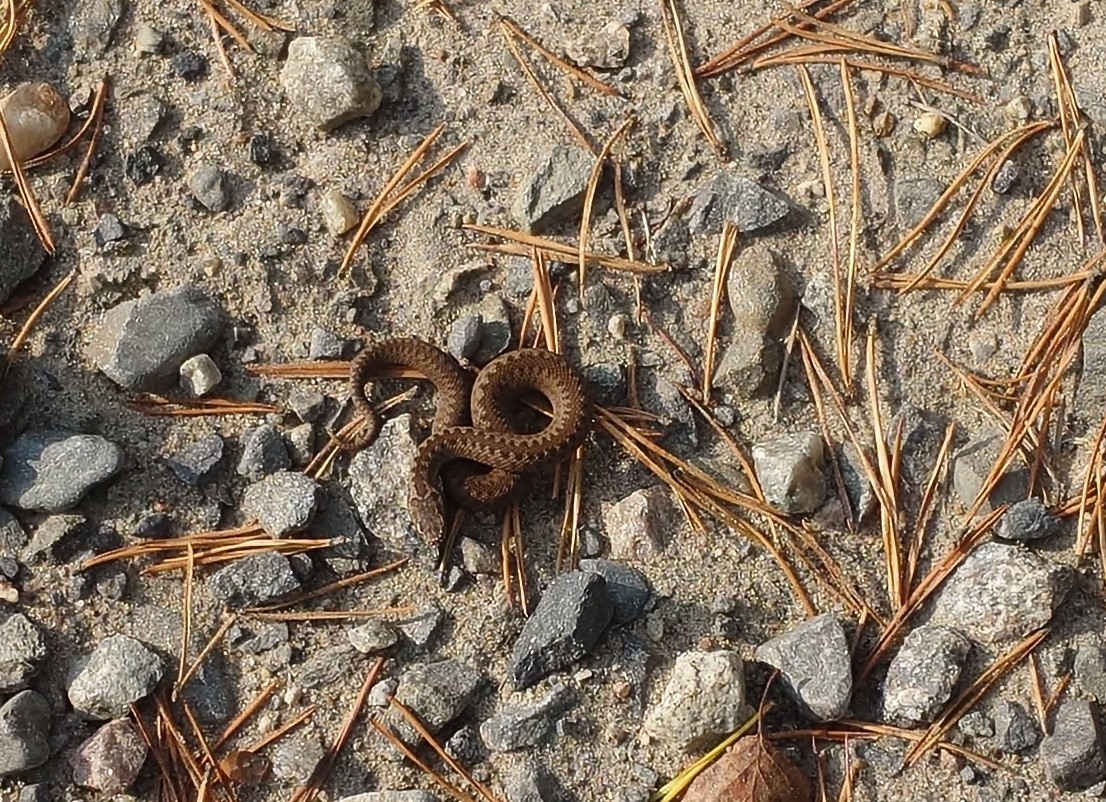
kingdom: Animalia
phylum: Chordata
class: Squamata
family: Viperidae
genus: Vipera
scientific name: Vipera berus
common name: Adder
